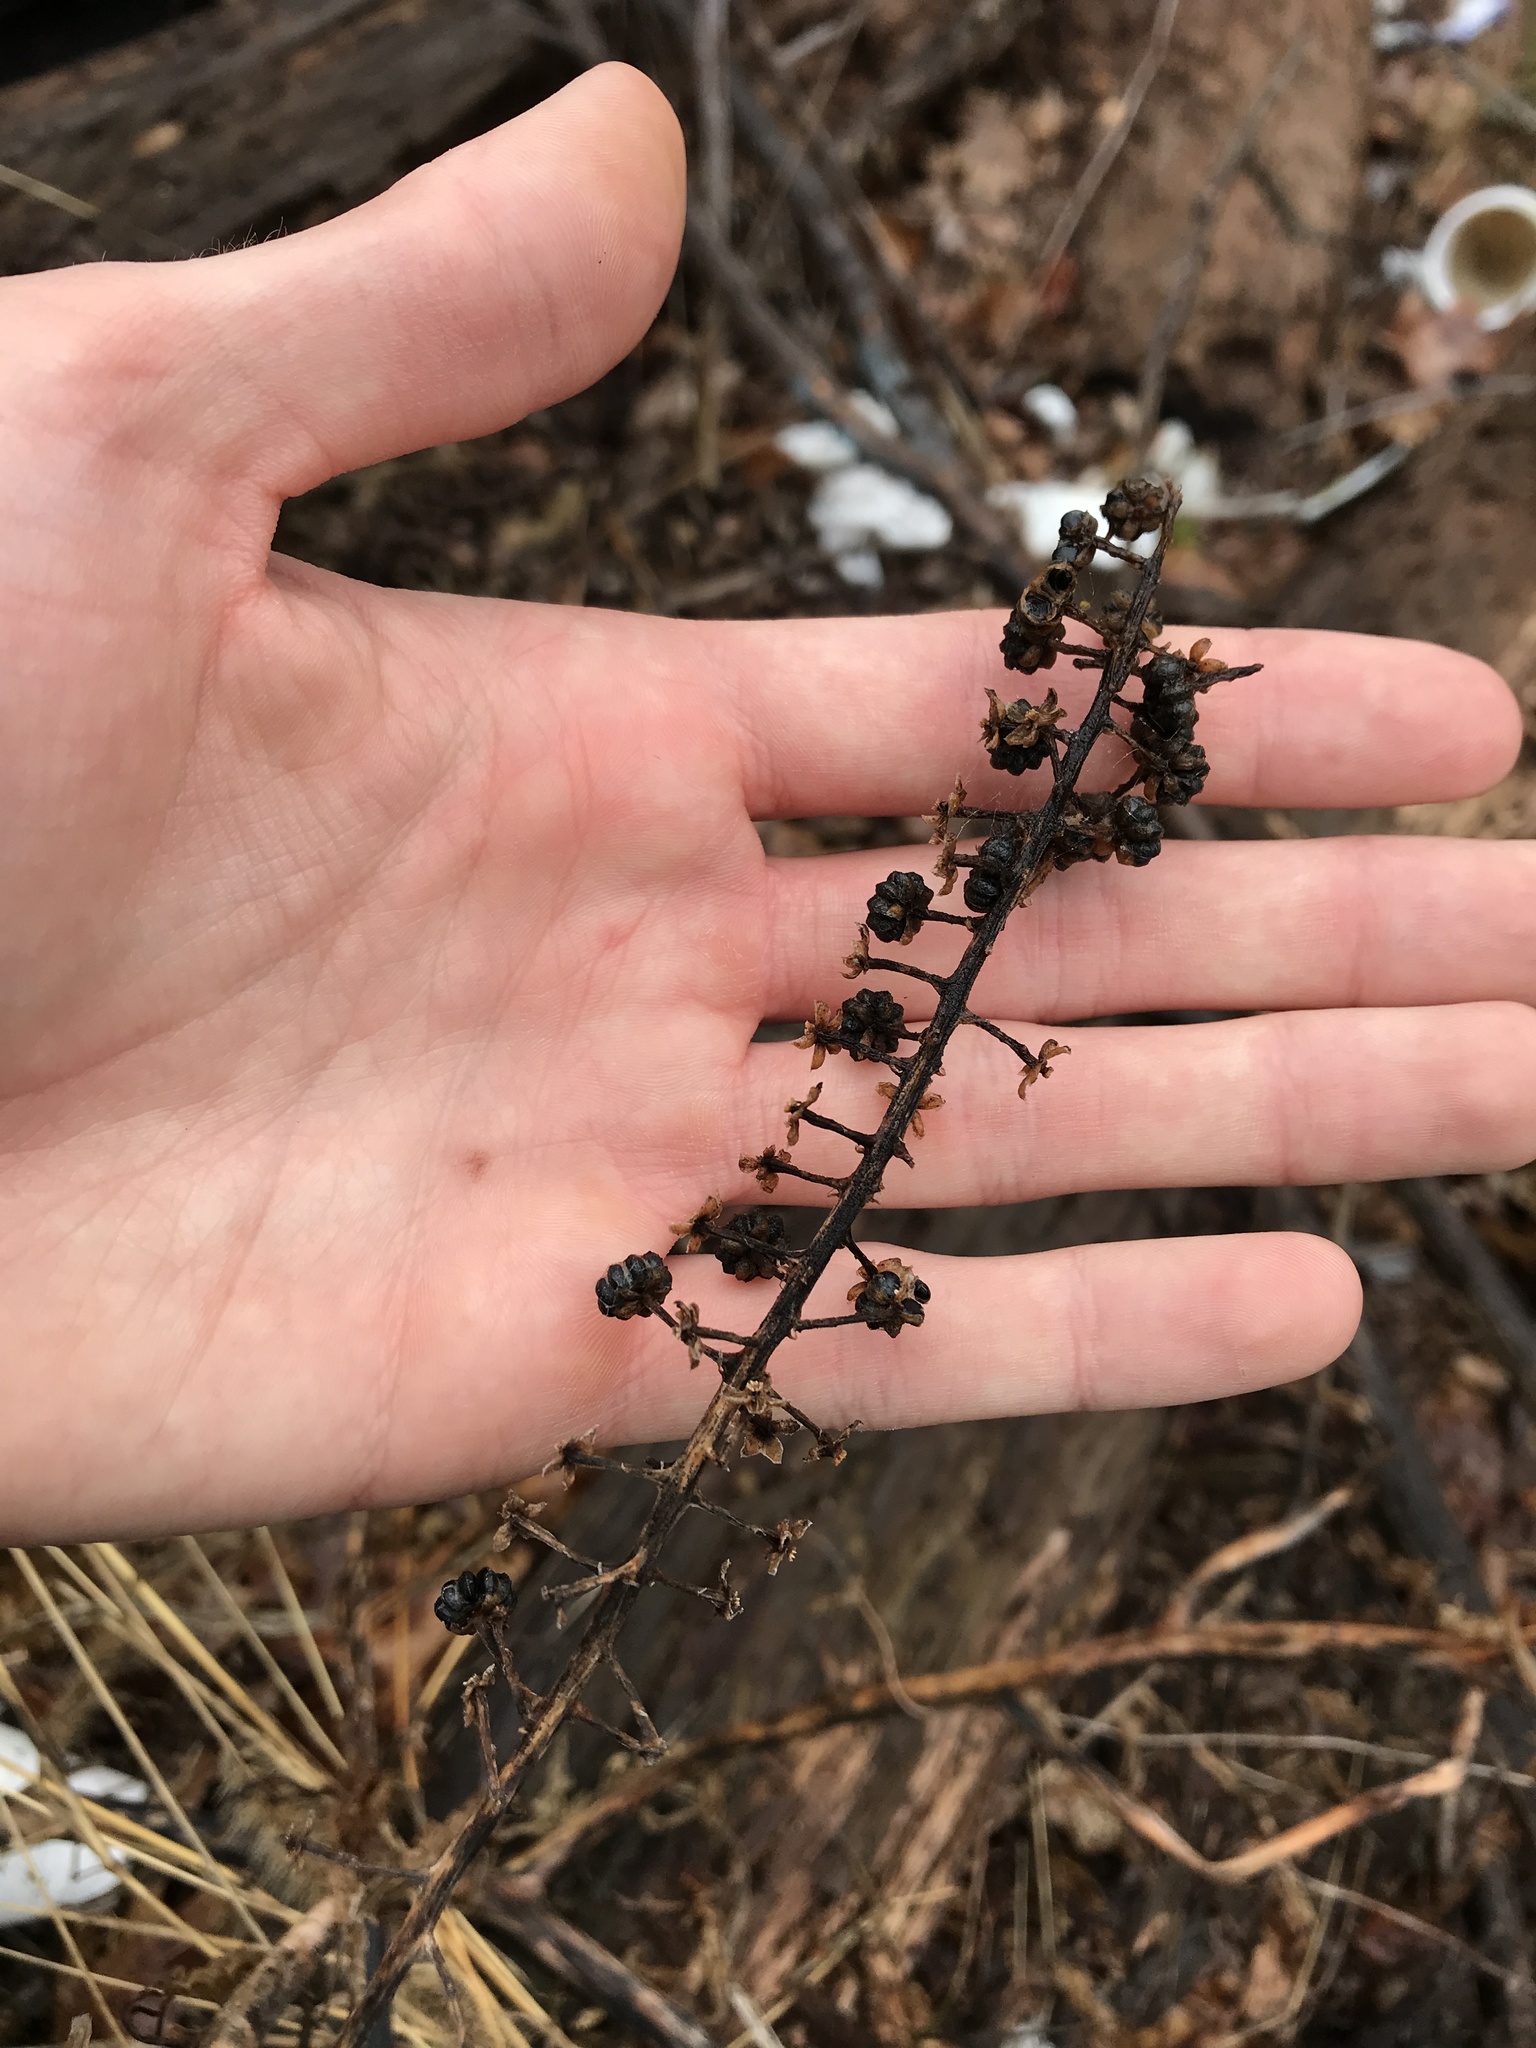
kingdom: Plantae
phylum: Tracheophyta
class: Magnoliopsida
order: Caryophyllales
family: Phytolaccaceae
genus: Phytolacca
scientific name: Phytolacca americana
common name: American pokeweed
